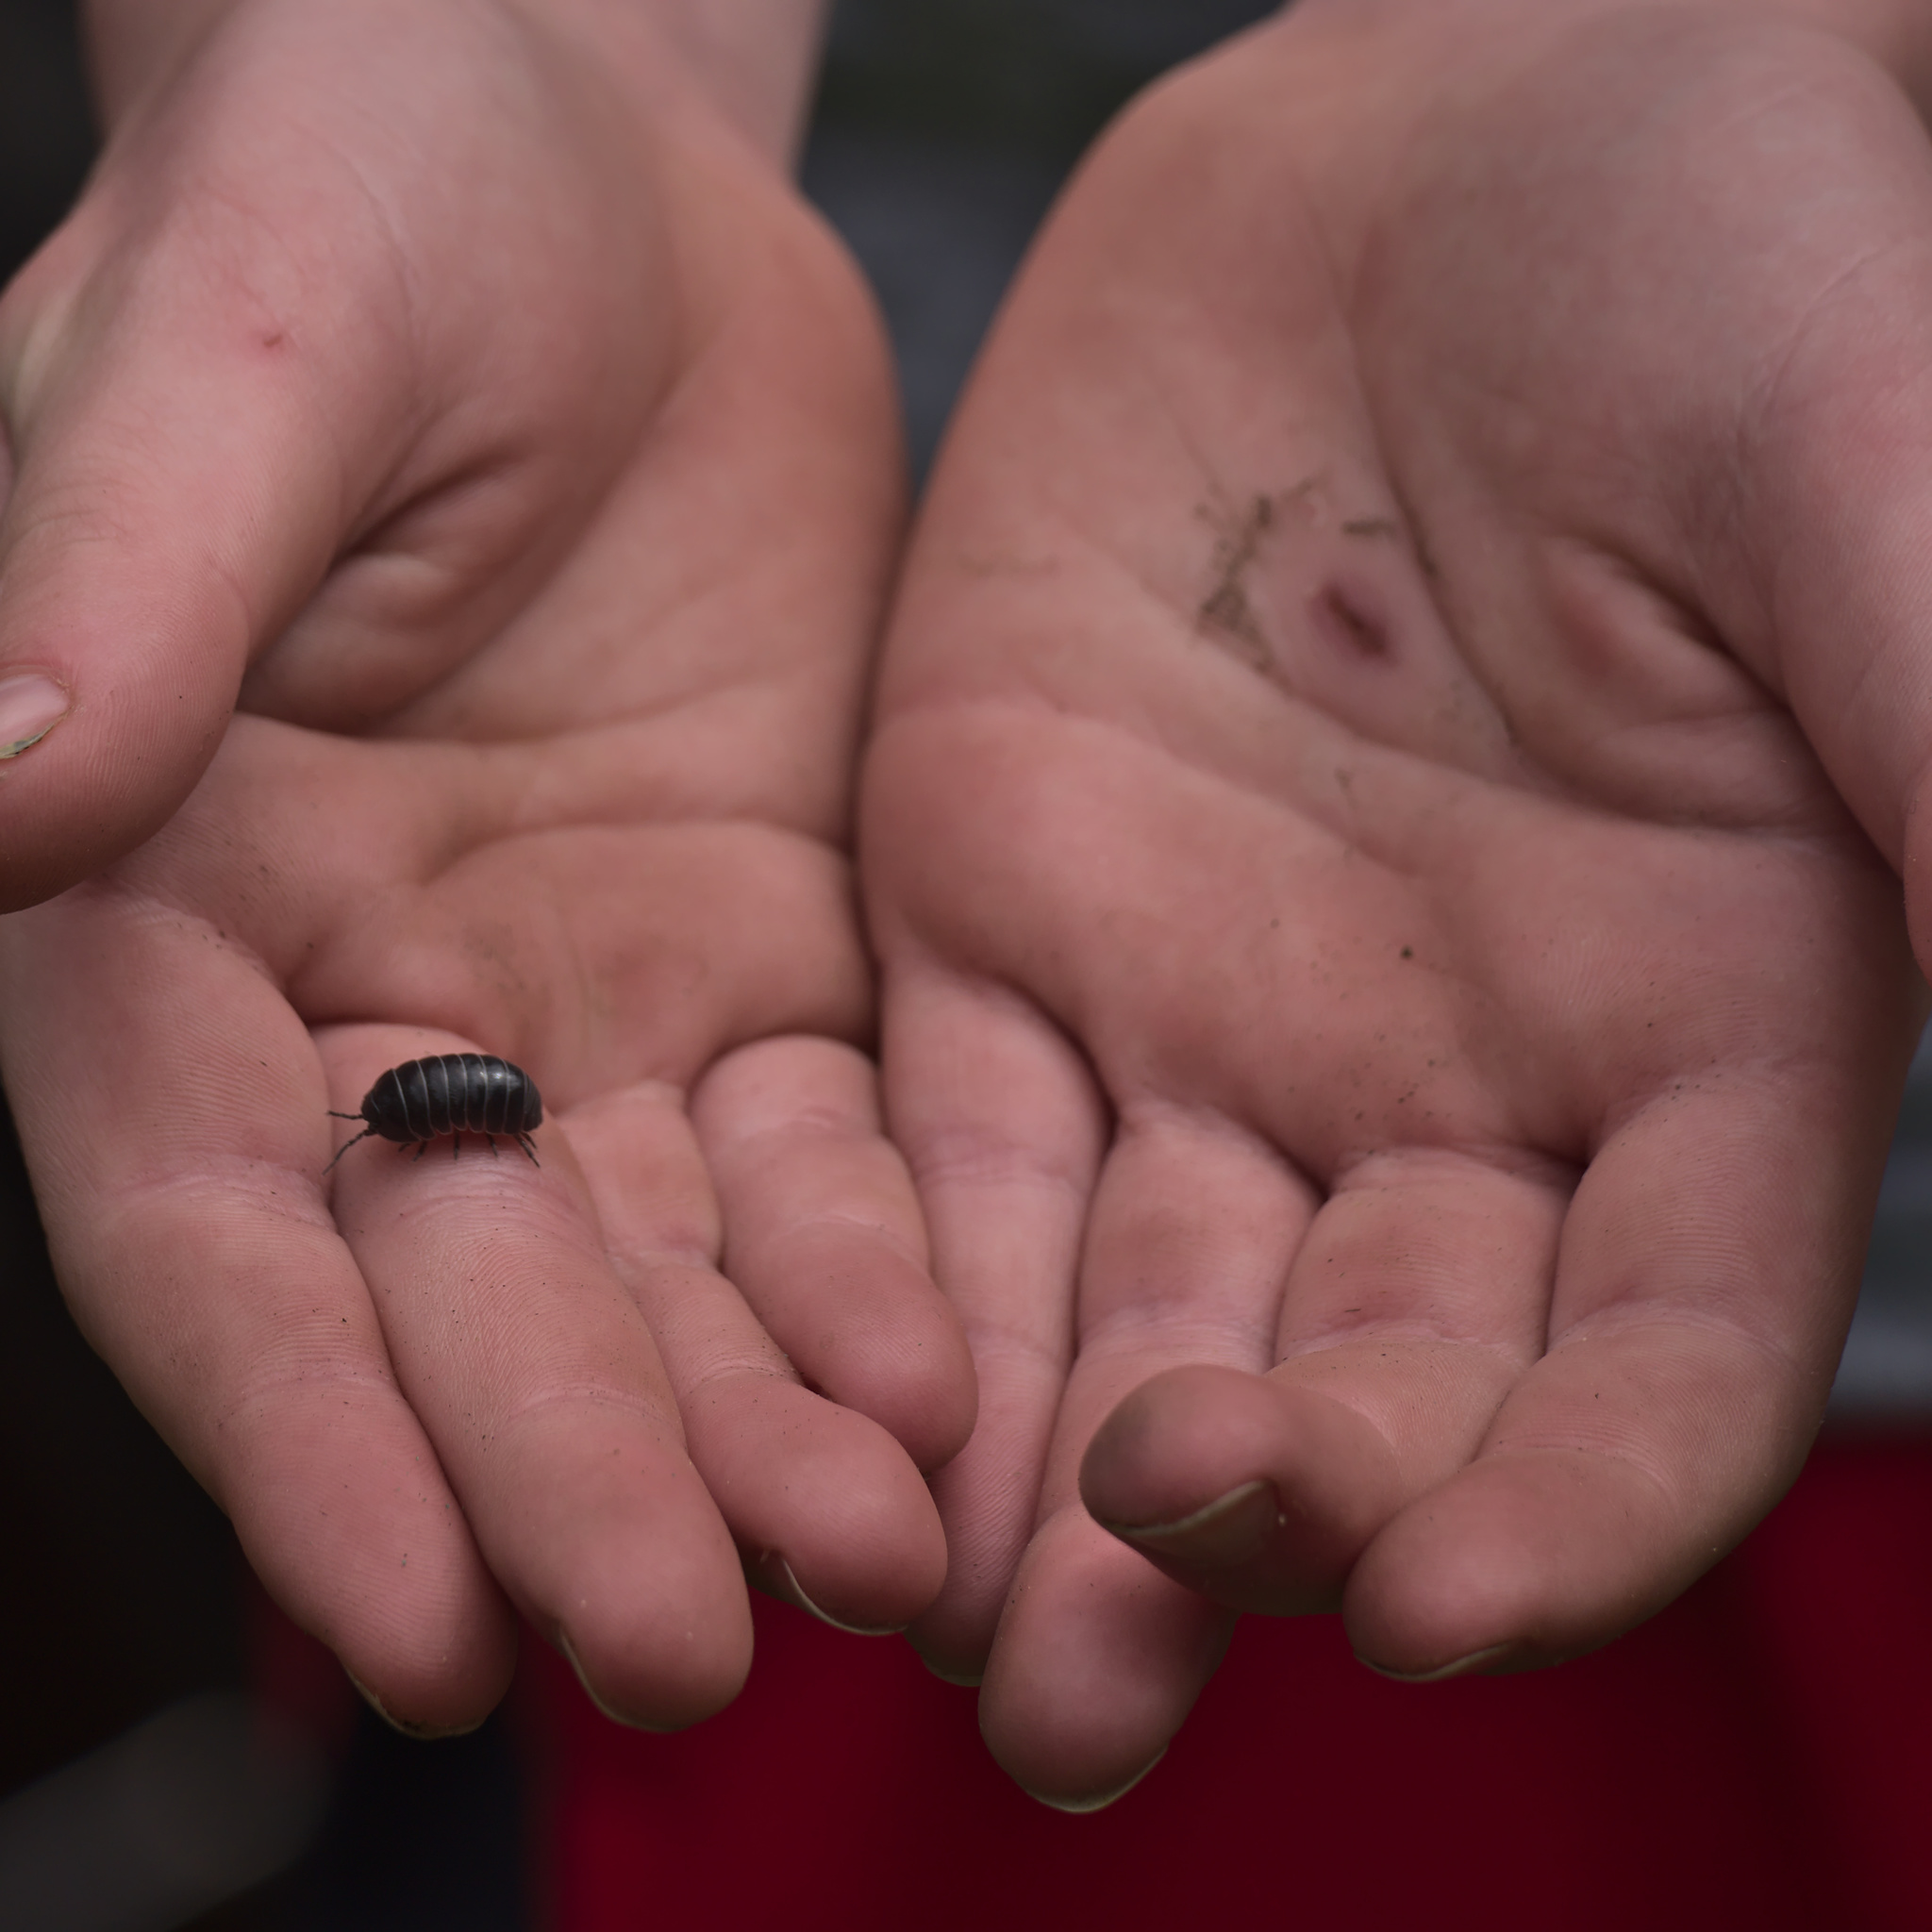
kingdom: Animalia
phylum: Arthropoda
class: Malacostraca
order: Isopoda
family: Armadillidiidae
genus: Armadillidium
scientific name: Armadillidium vulgare
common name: Common pill woodlouse
